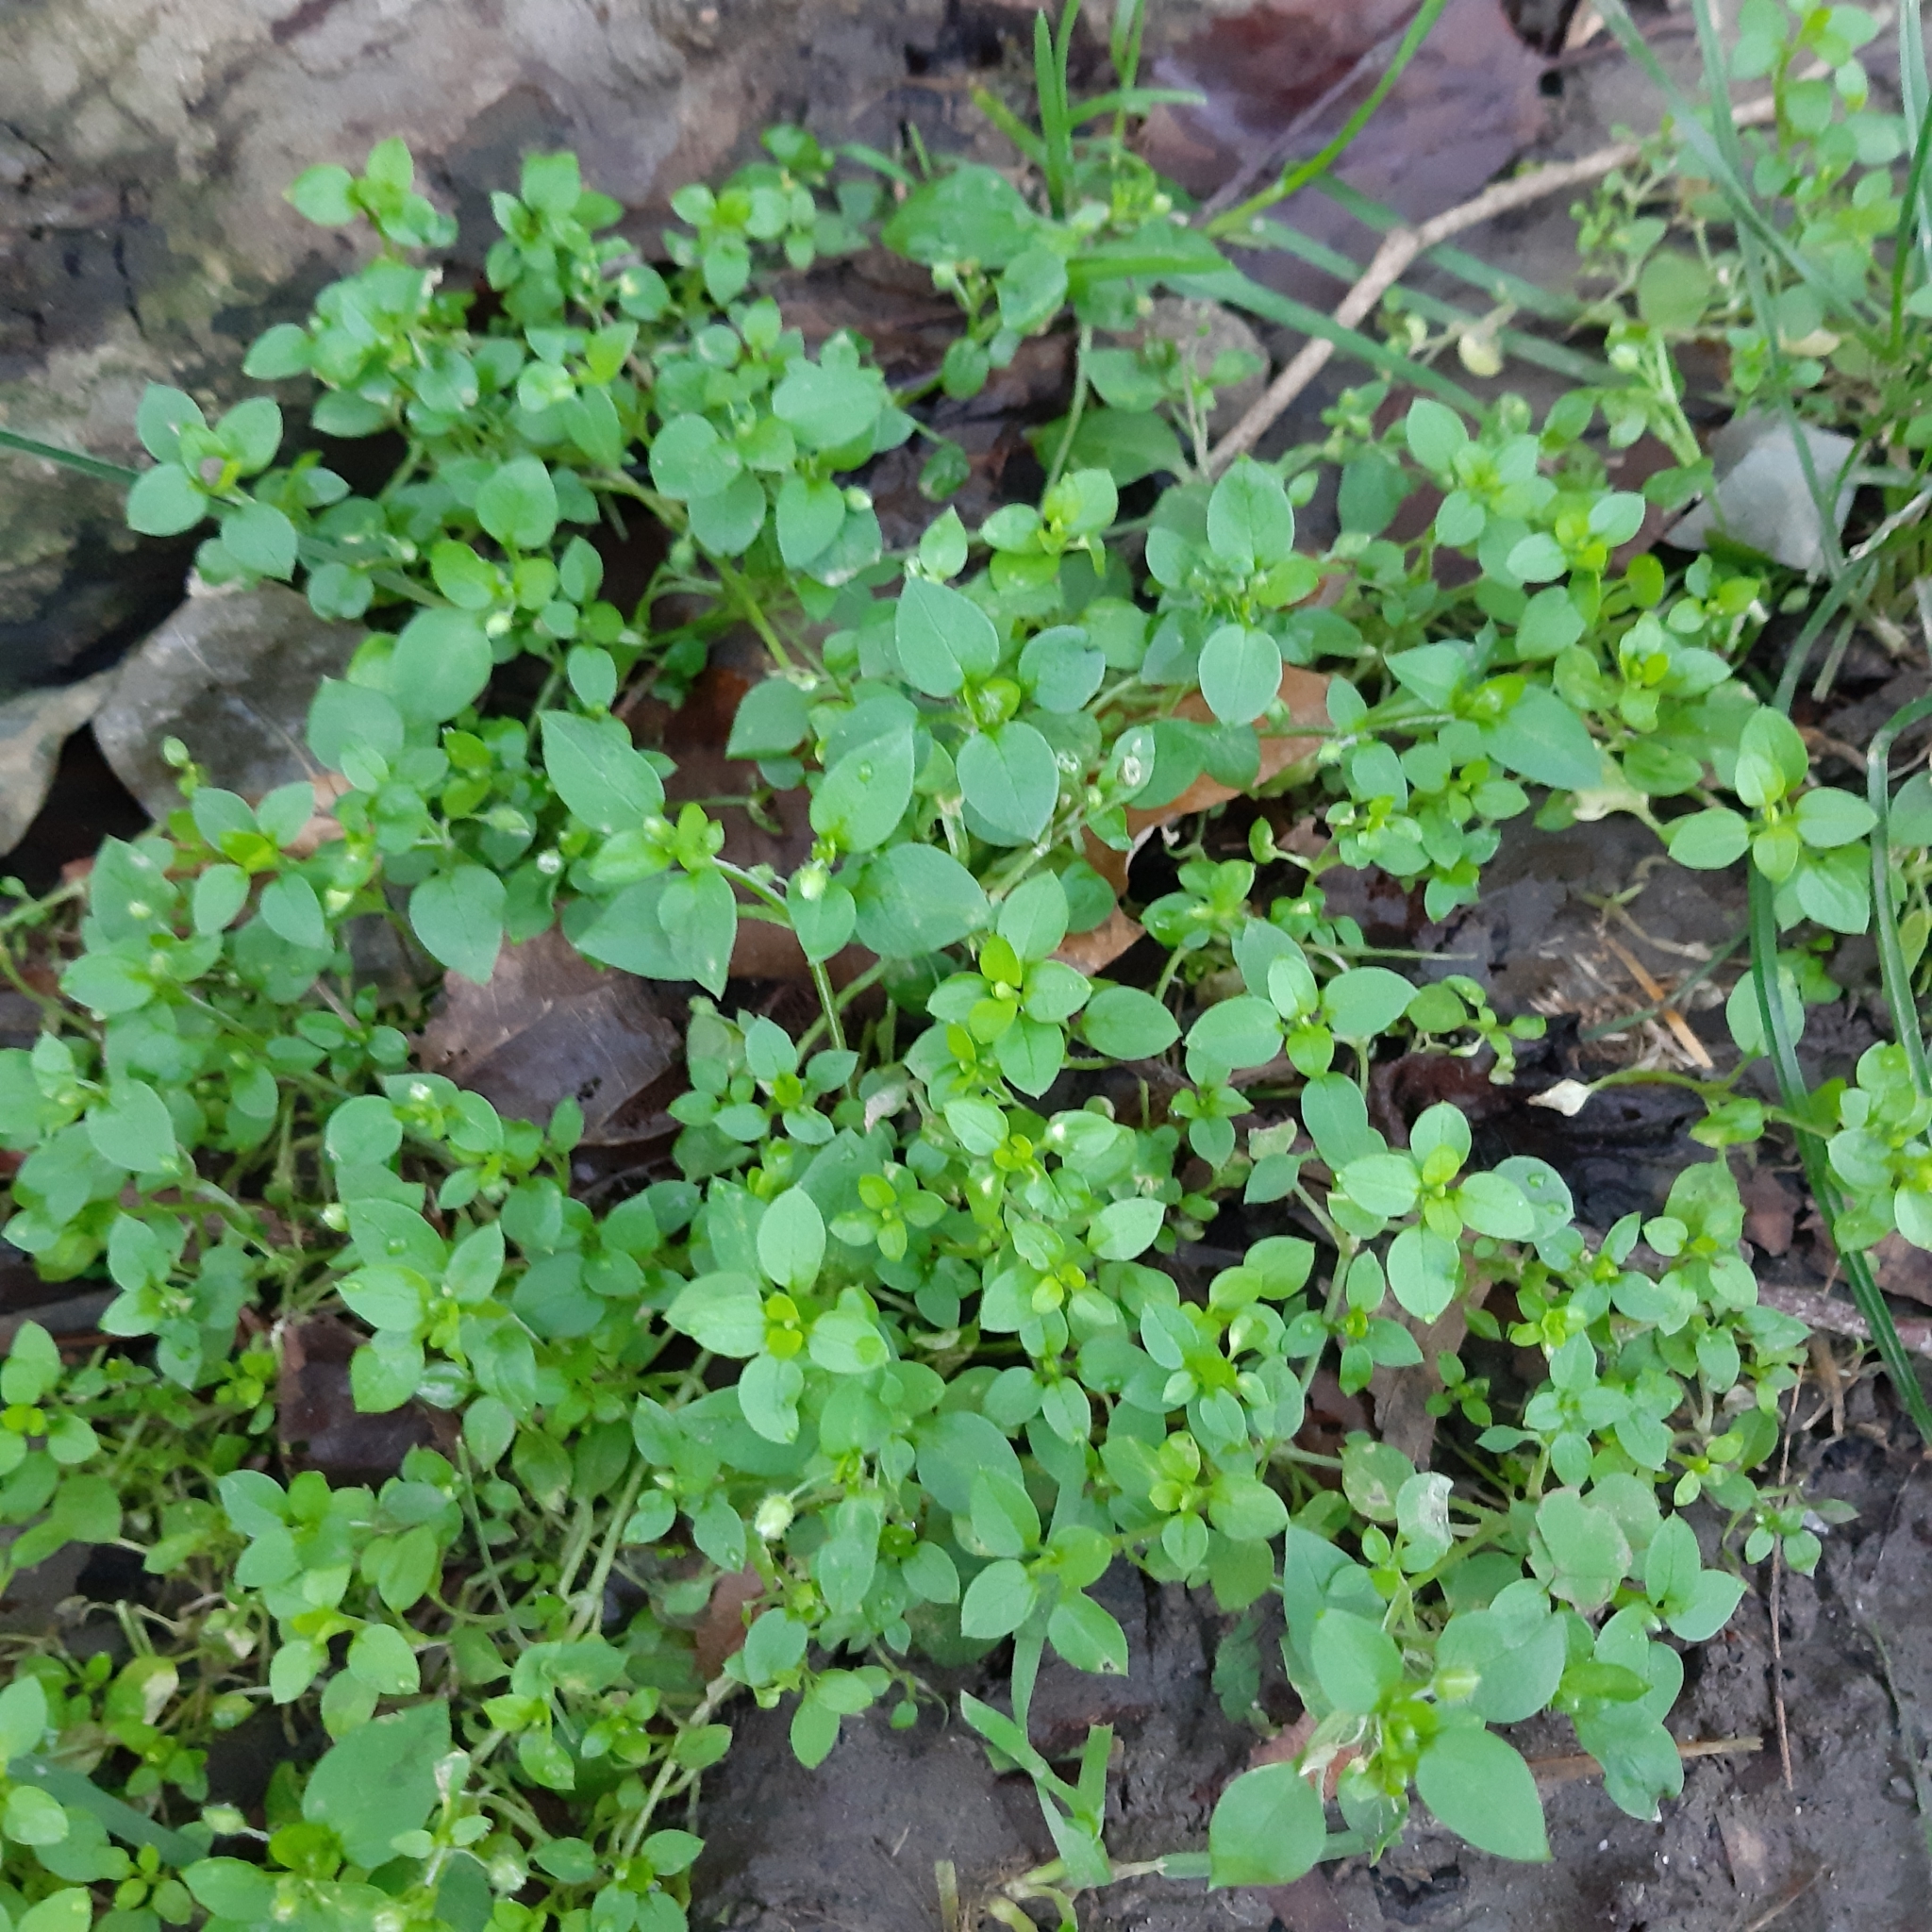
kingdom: Plantae
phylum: Tracheophyta
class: Magnoliopsida
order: Caryophyllales
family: Caryophyllaceae
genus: Stellaria
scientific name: Stellaria media
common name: Common chickweed
